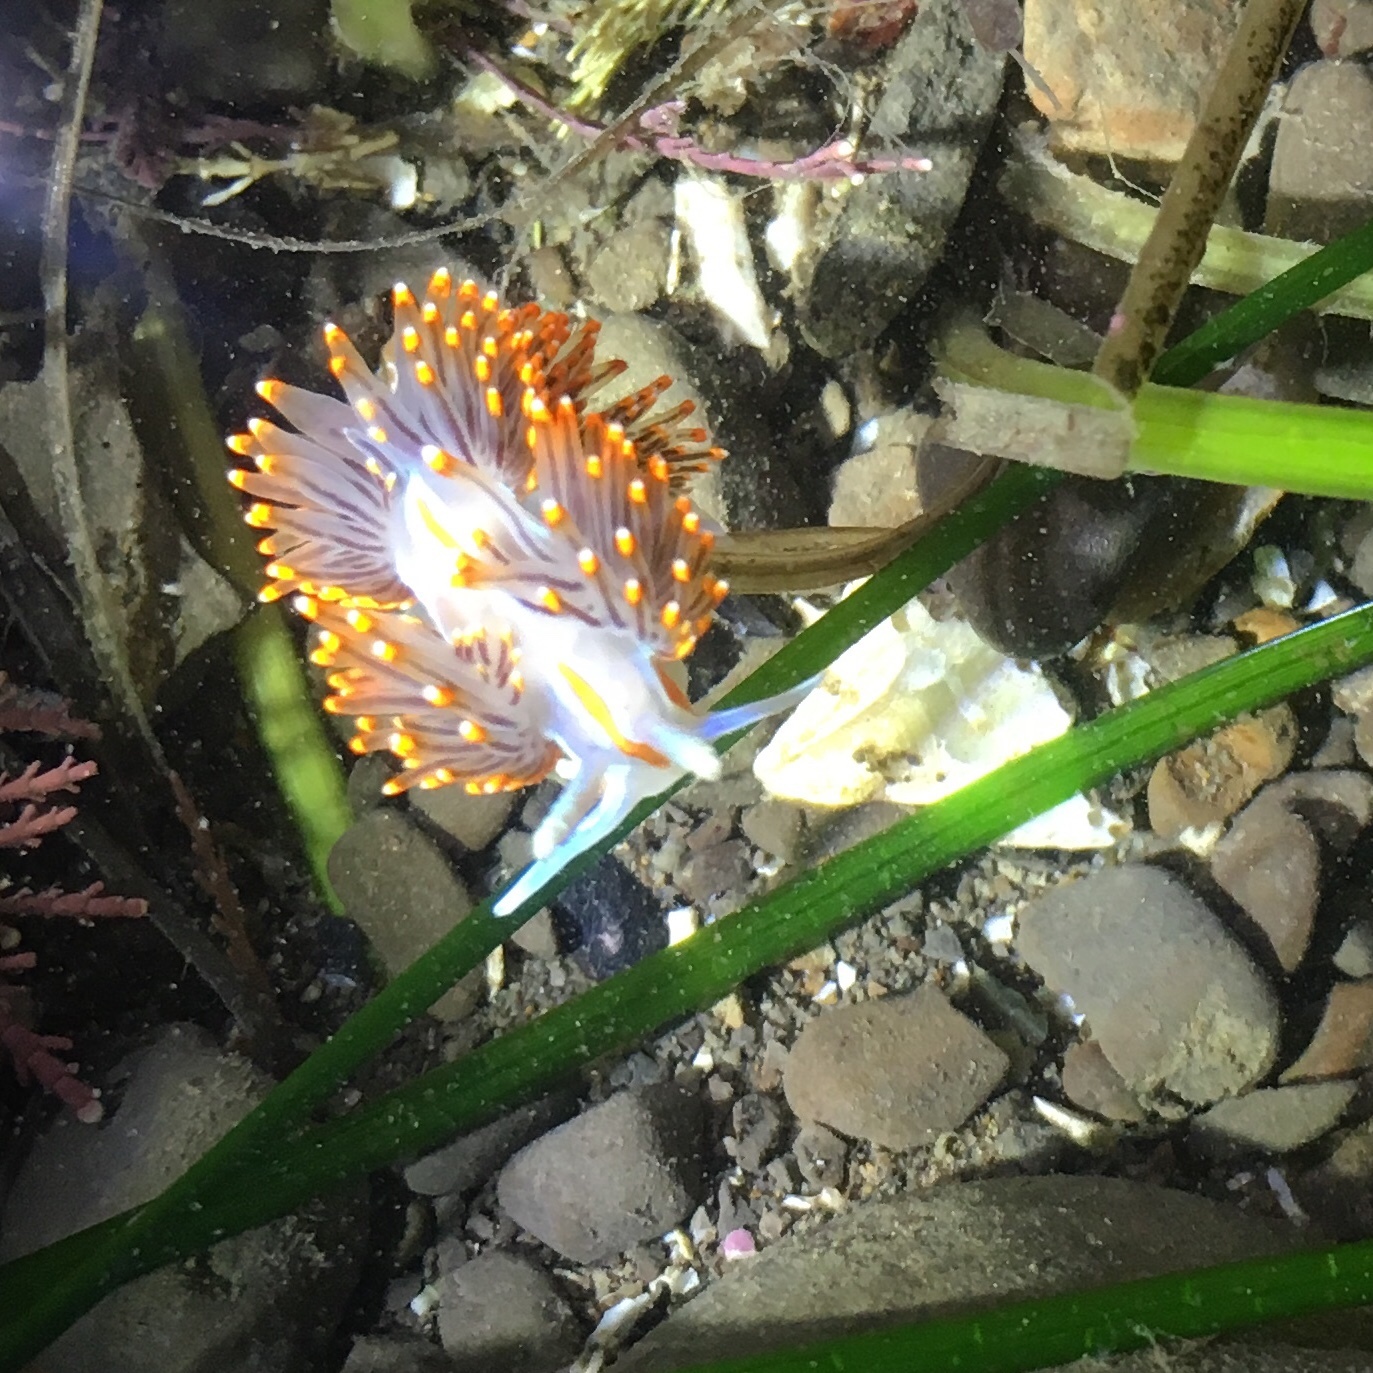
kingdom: Animalia
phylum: Mollusca
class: Gastropoda
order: Nudibranchia
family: Myrrhinidae
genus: Hermissenda
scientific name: Hermissenda opalescens
